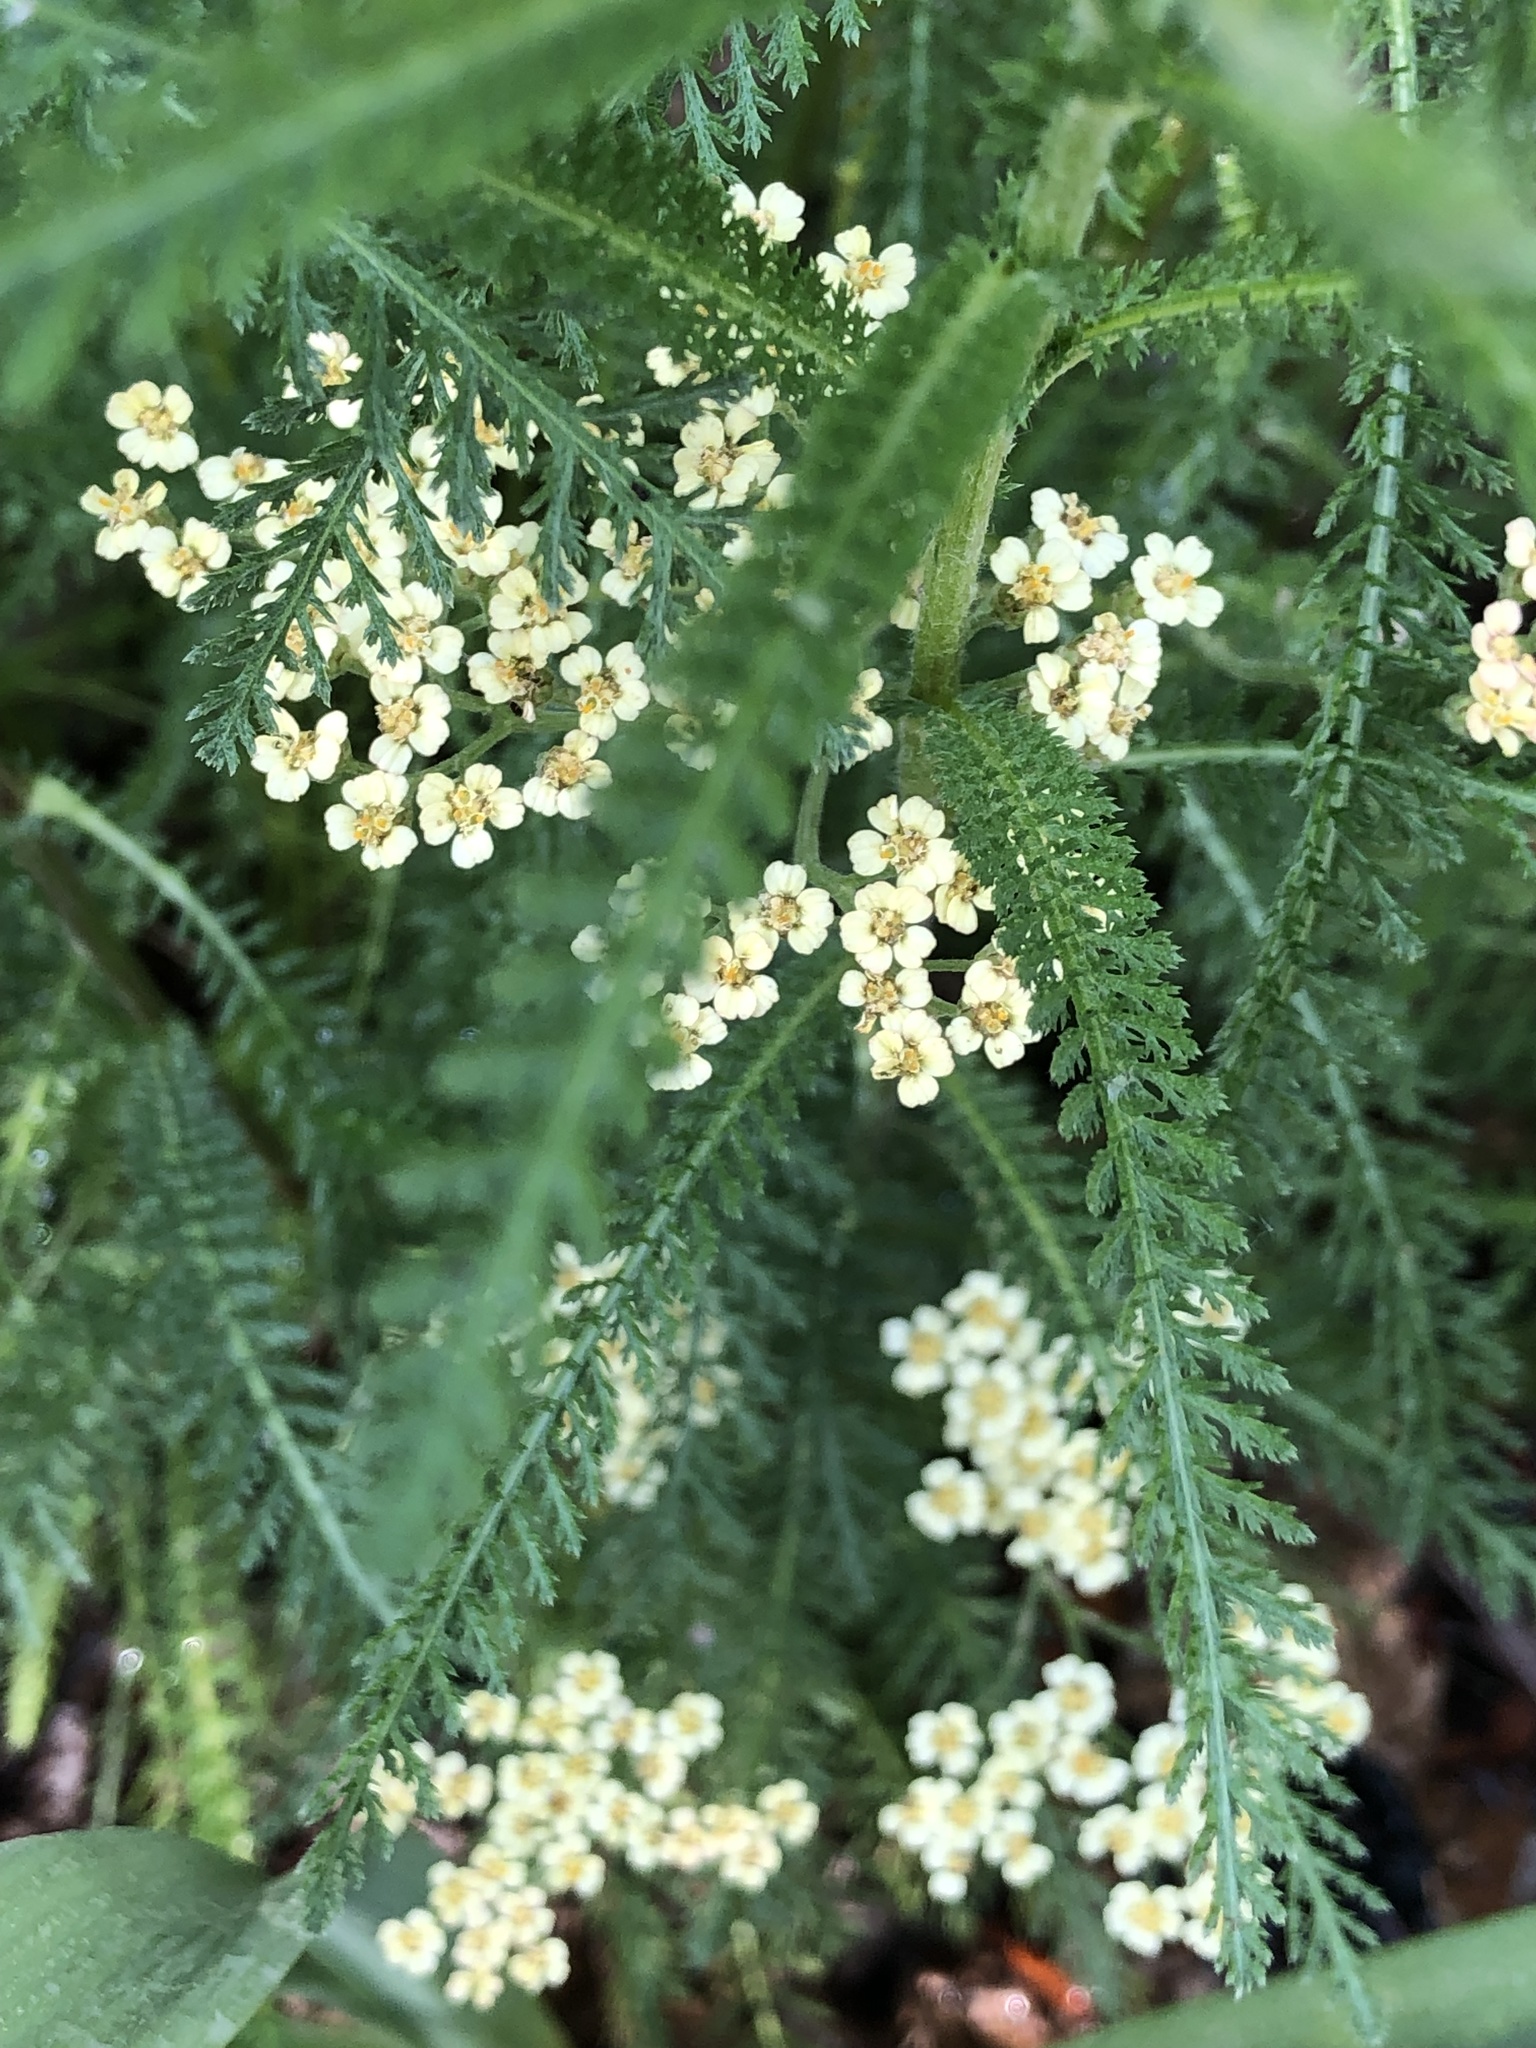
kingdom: Plantae
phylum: Tracheophyta
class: Magnoliopsida
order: Asterales
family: Asteraceae
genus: Achillea
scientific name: Achillea millefolium
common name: Yarrow
